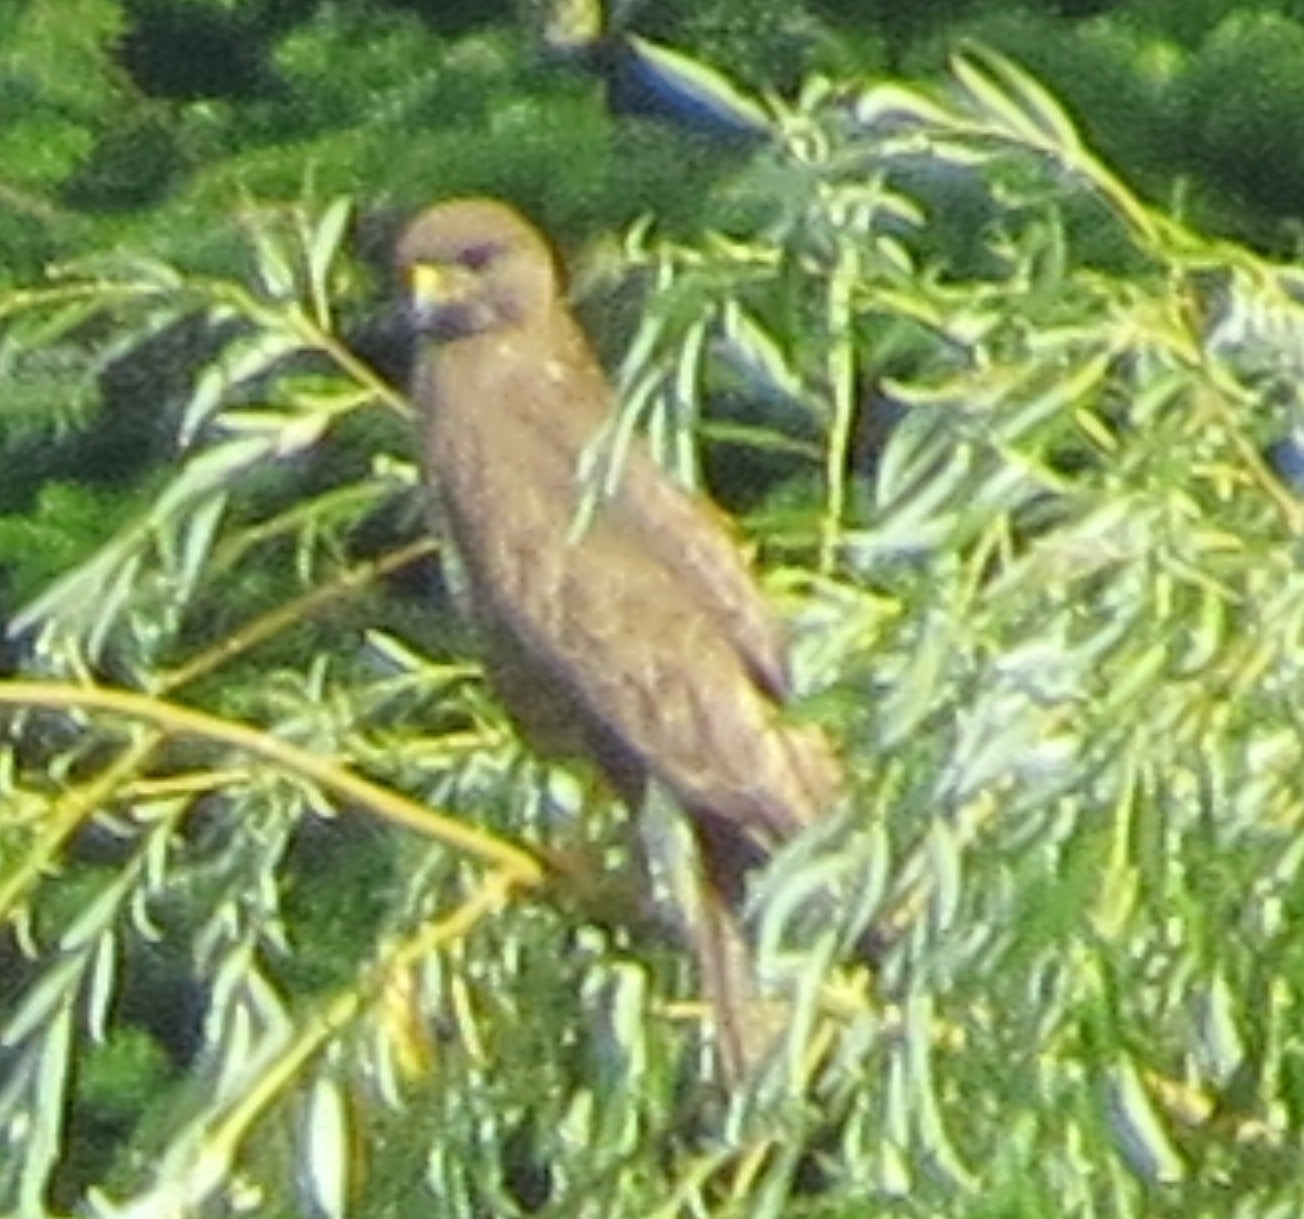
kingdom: Animalia
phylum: Chordata
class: Aves
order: Accipitriformes
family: Accipitridae
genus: Buteo
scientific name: Buteo buteo
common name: Common buzzard
